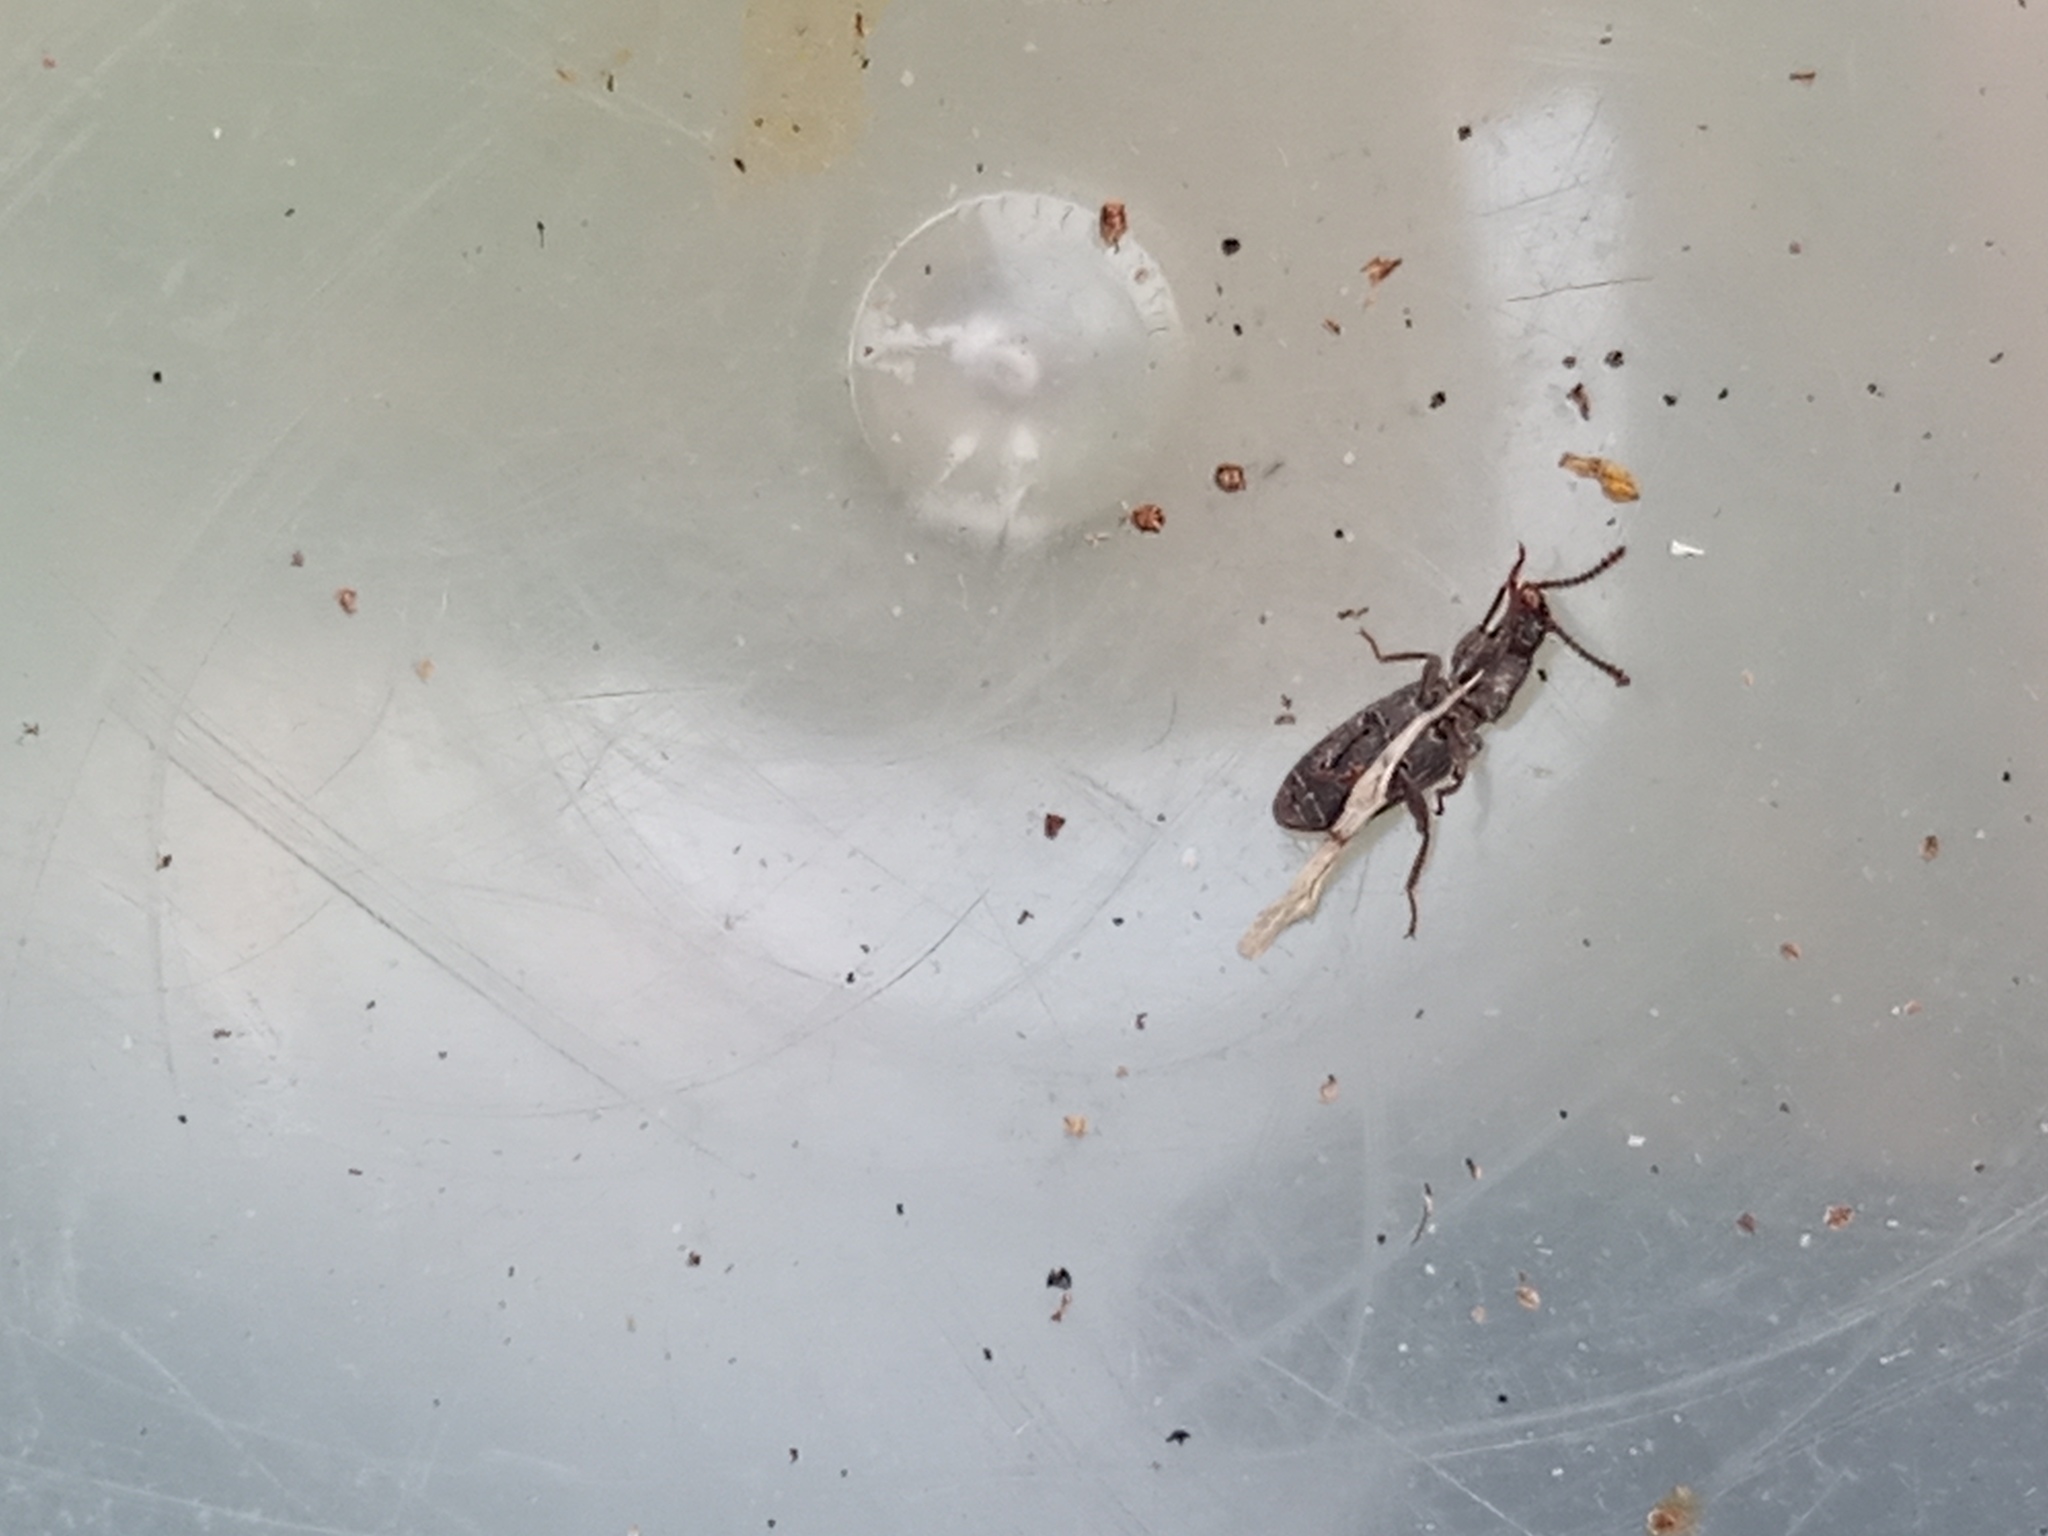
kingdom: Animalia
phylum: Arthropoda
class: Insecta
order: Coleoptera
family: Tenebrionidae
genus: Rhypasma
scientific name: Rhypasma
